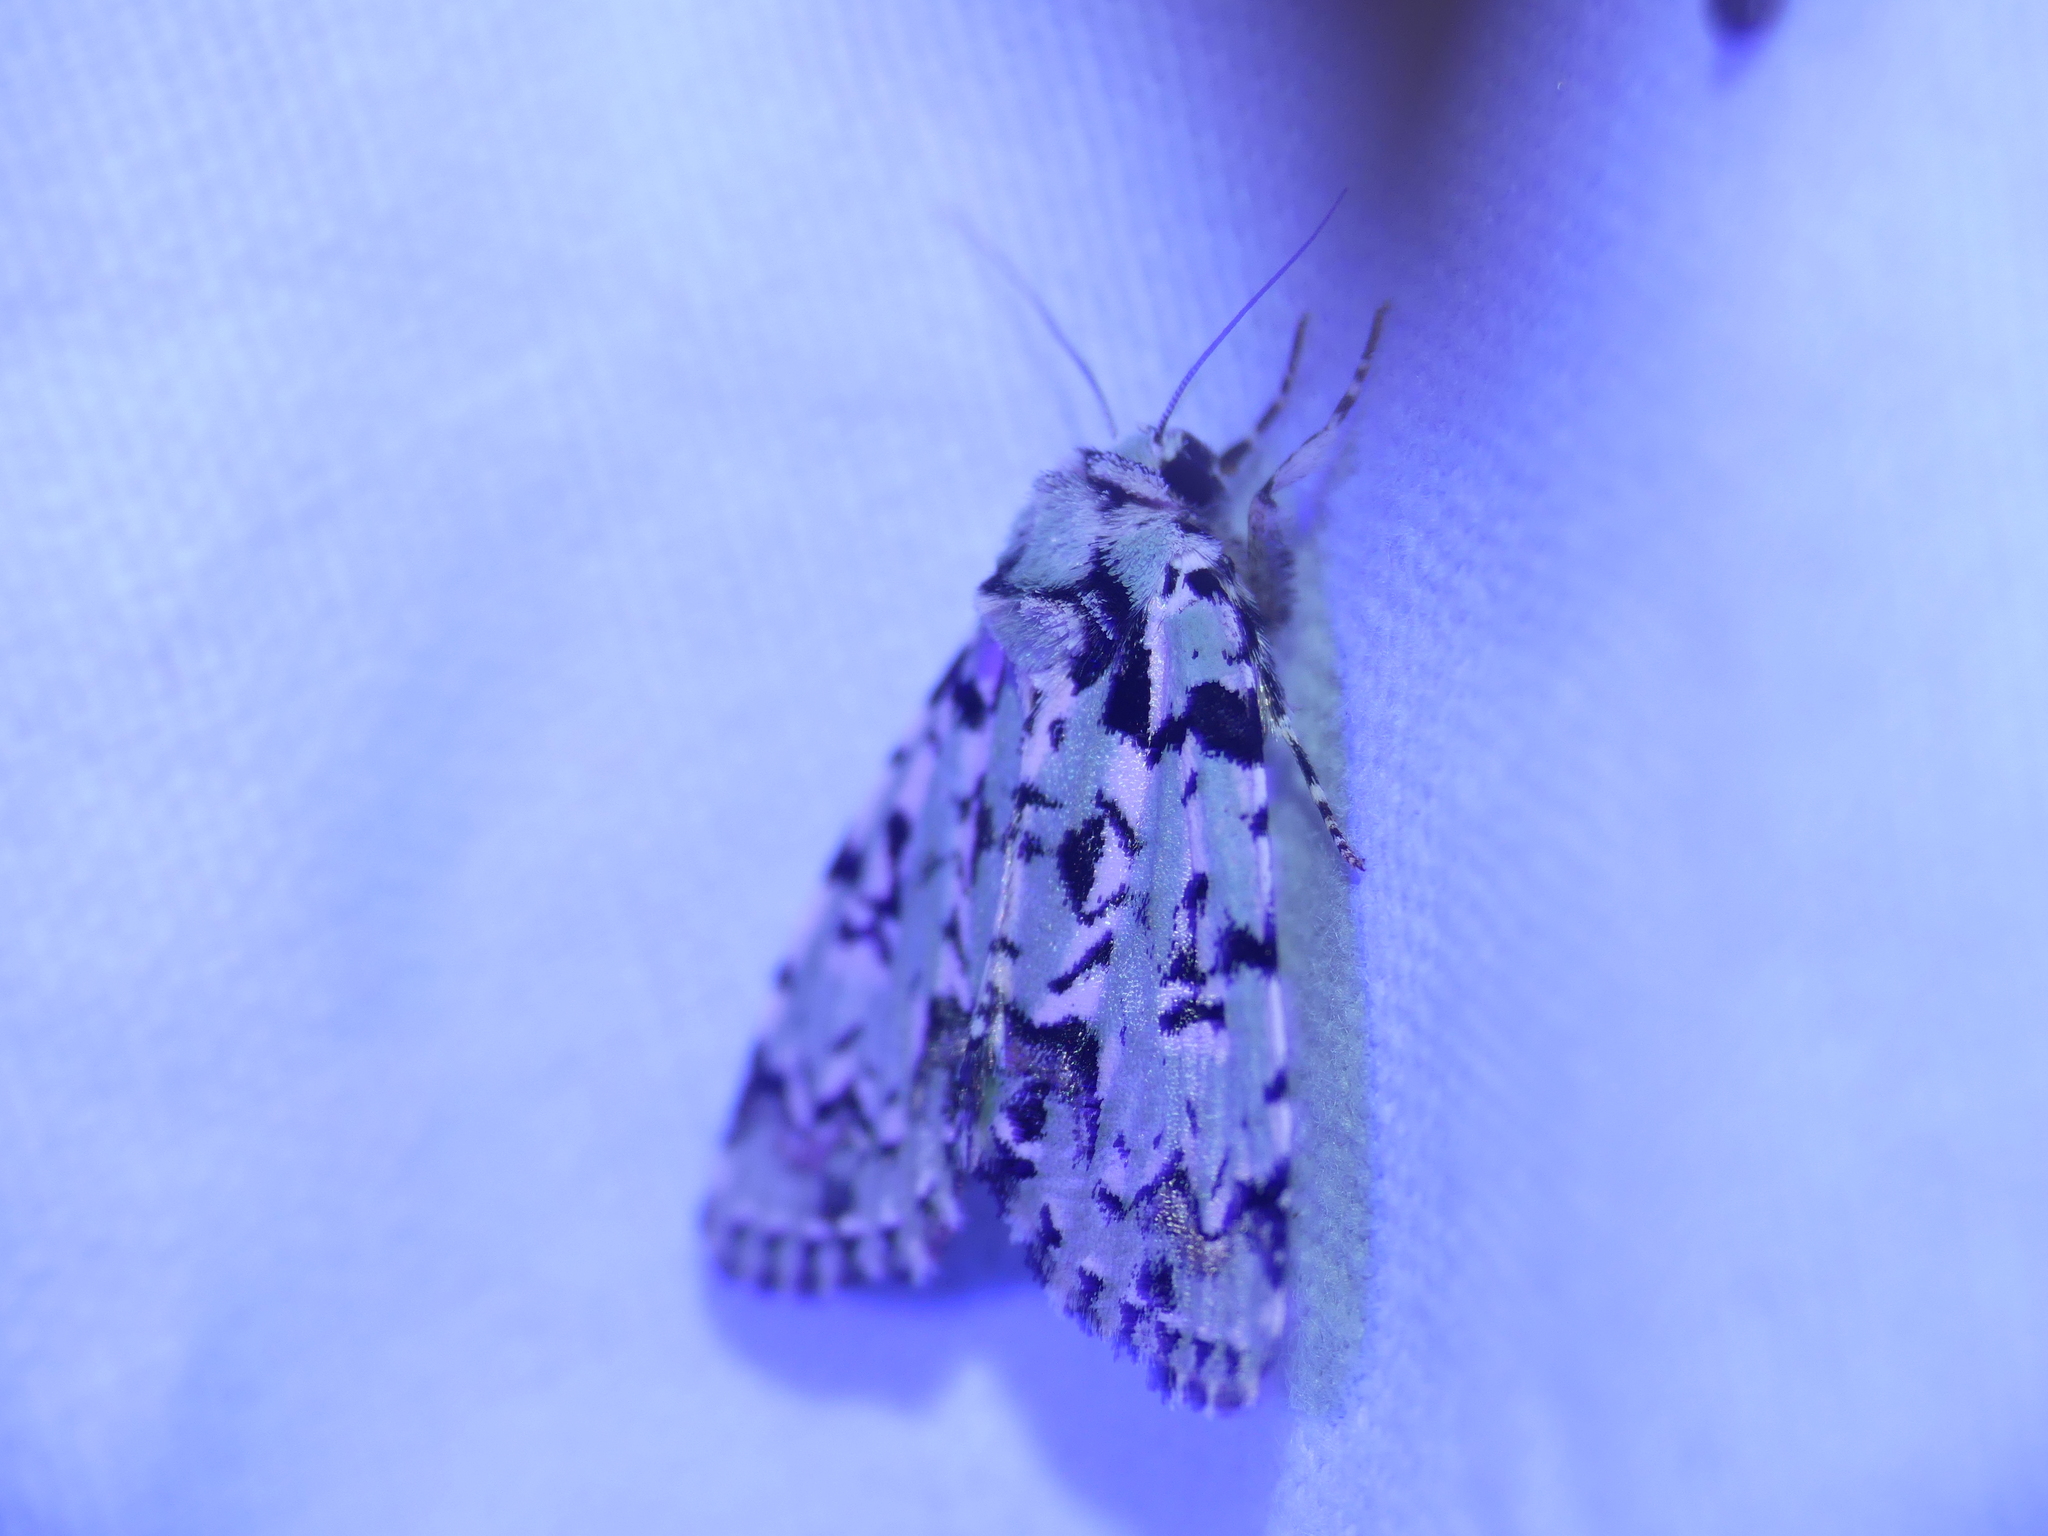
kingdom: Animalia
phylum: Arthropoda
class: Insecta
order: Lepidoptera
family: Noctuidae
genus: Moma
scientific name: Moma alpium
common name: Scarce merveille du jour
